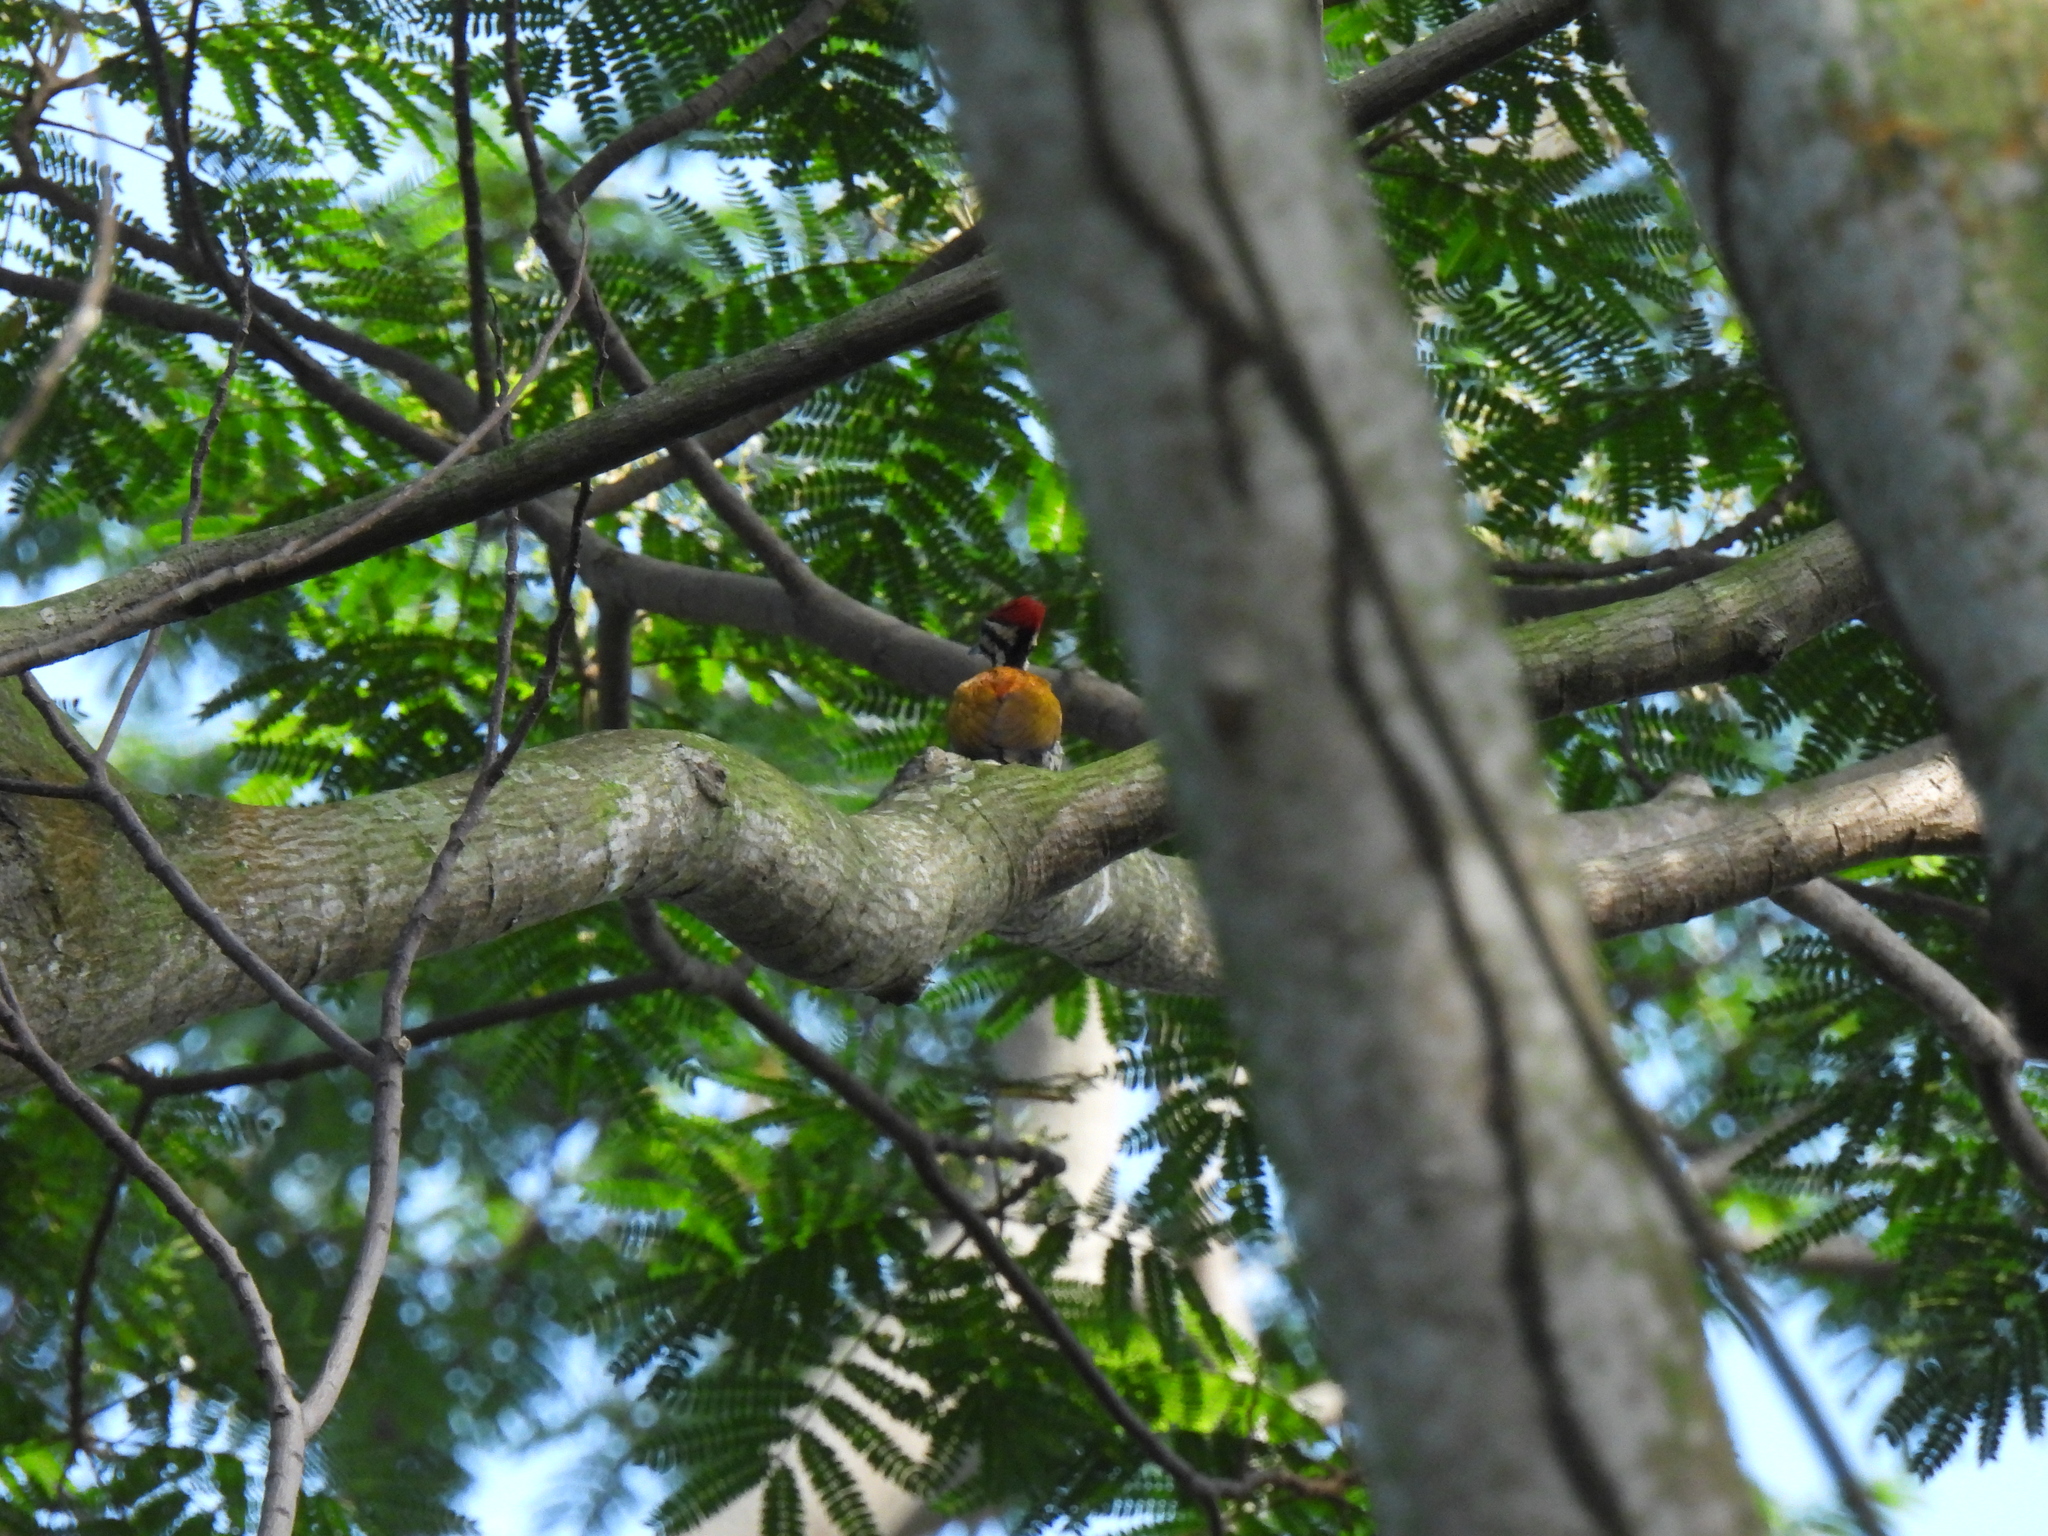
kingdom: Animalia
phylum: Chordata
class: Aves
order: Piciformes
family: Picidae
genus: Dinopium
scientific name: Dinopium javanense
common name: Common flameback
